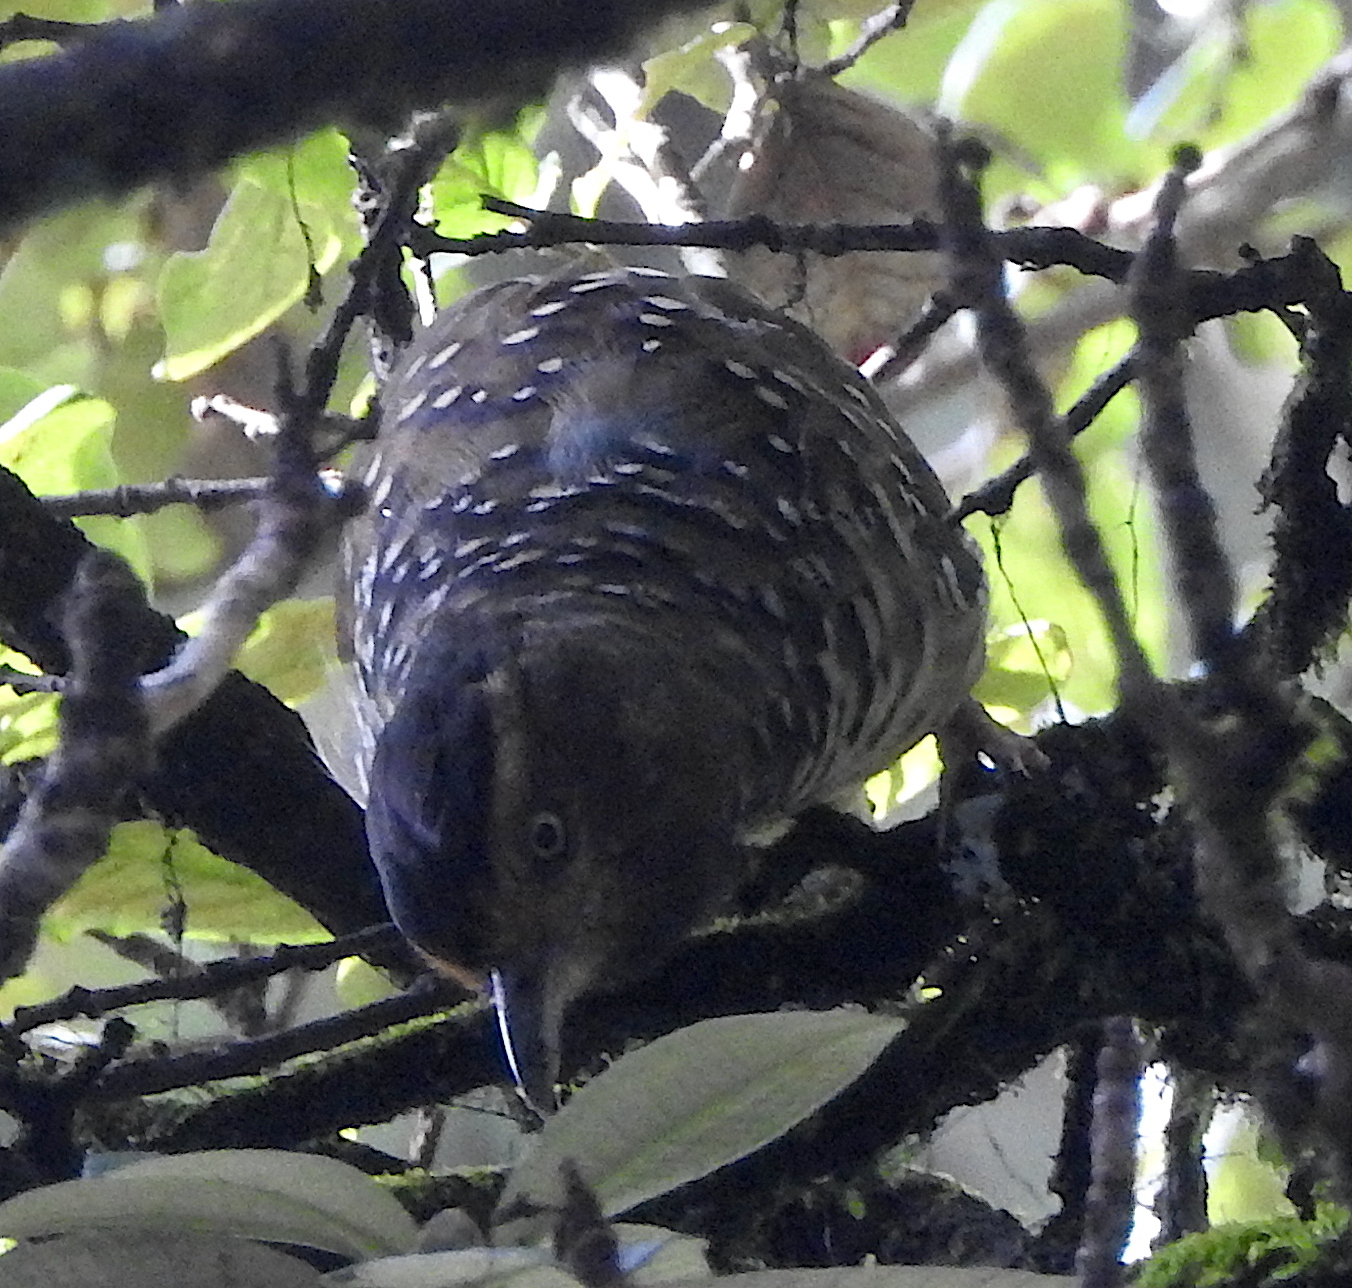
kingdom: Animalia
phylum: Chordata
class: Aves
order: Passeriformes
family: Leiothrichidae
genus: Garrulax
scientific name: Garrulax ocellatus
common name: Spotted laughingthrush
